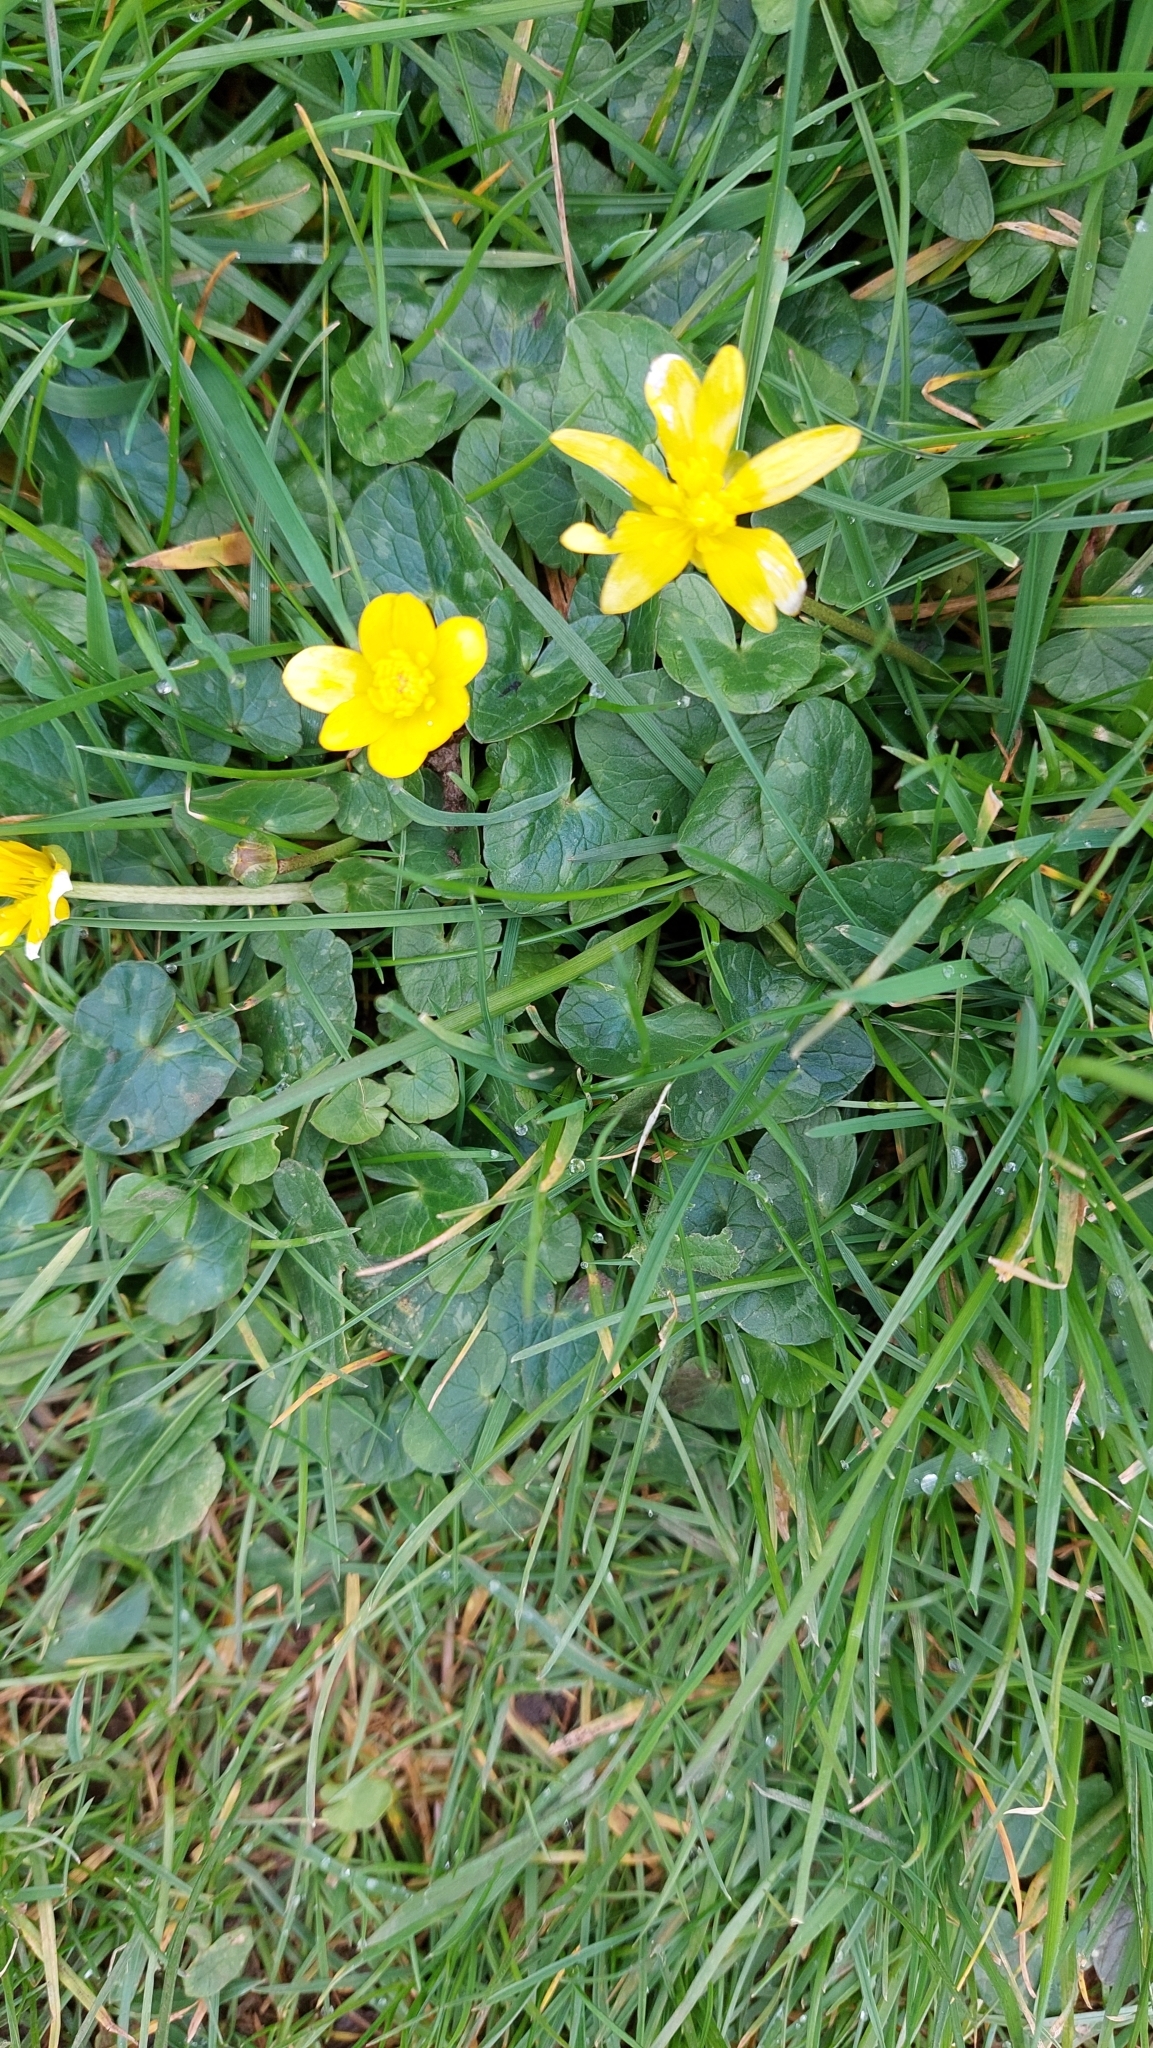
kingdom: Plantae
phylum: Tracheophyta
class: Magnoliopsida
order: Ranunculales
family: Ranunculaceae
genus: Ficaria
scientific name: Ficaria verna
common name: Lesser celandine
